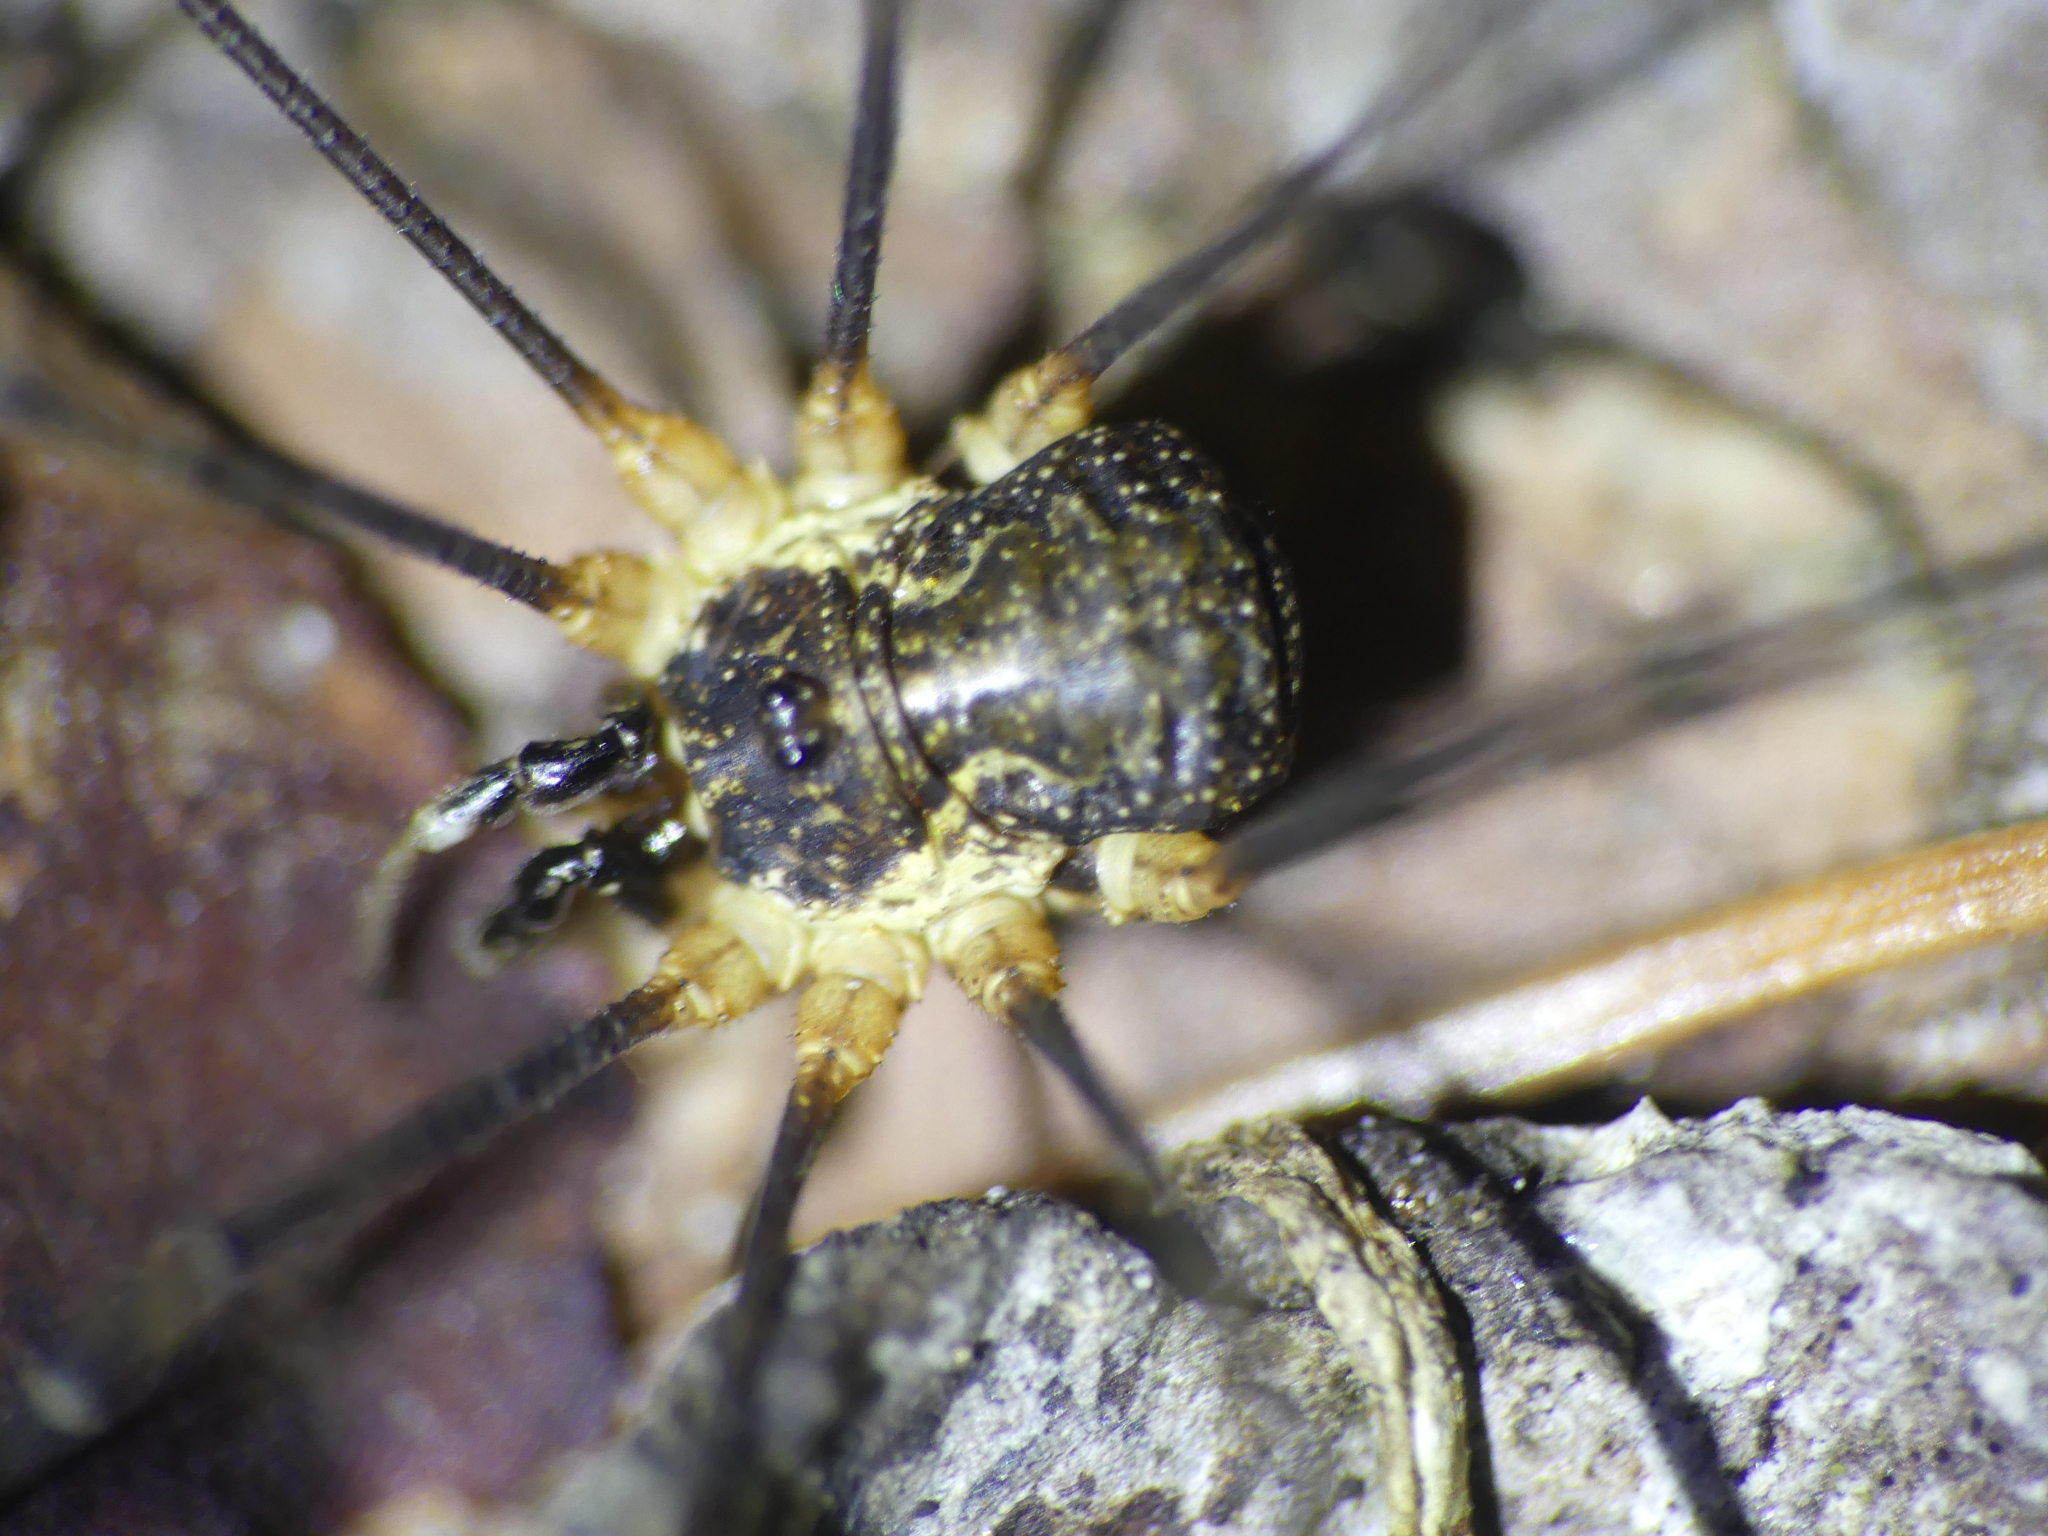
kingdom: Animalia
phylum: Arthropoda
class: Arachnida
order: Opiliones
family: Phalangiidae
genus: Mitopus
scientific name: Mitopus morio
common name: Saddleback harvestman
